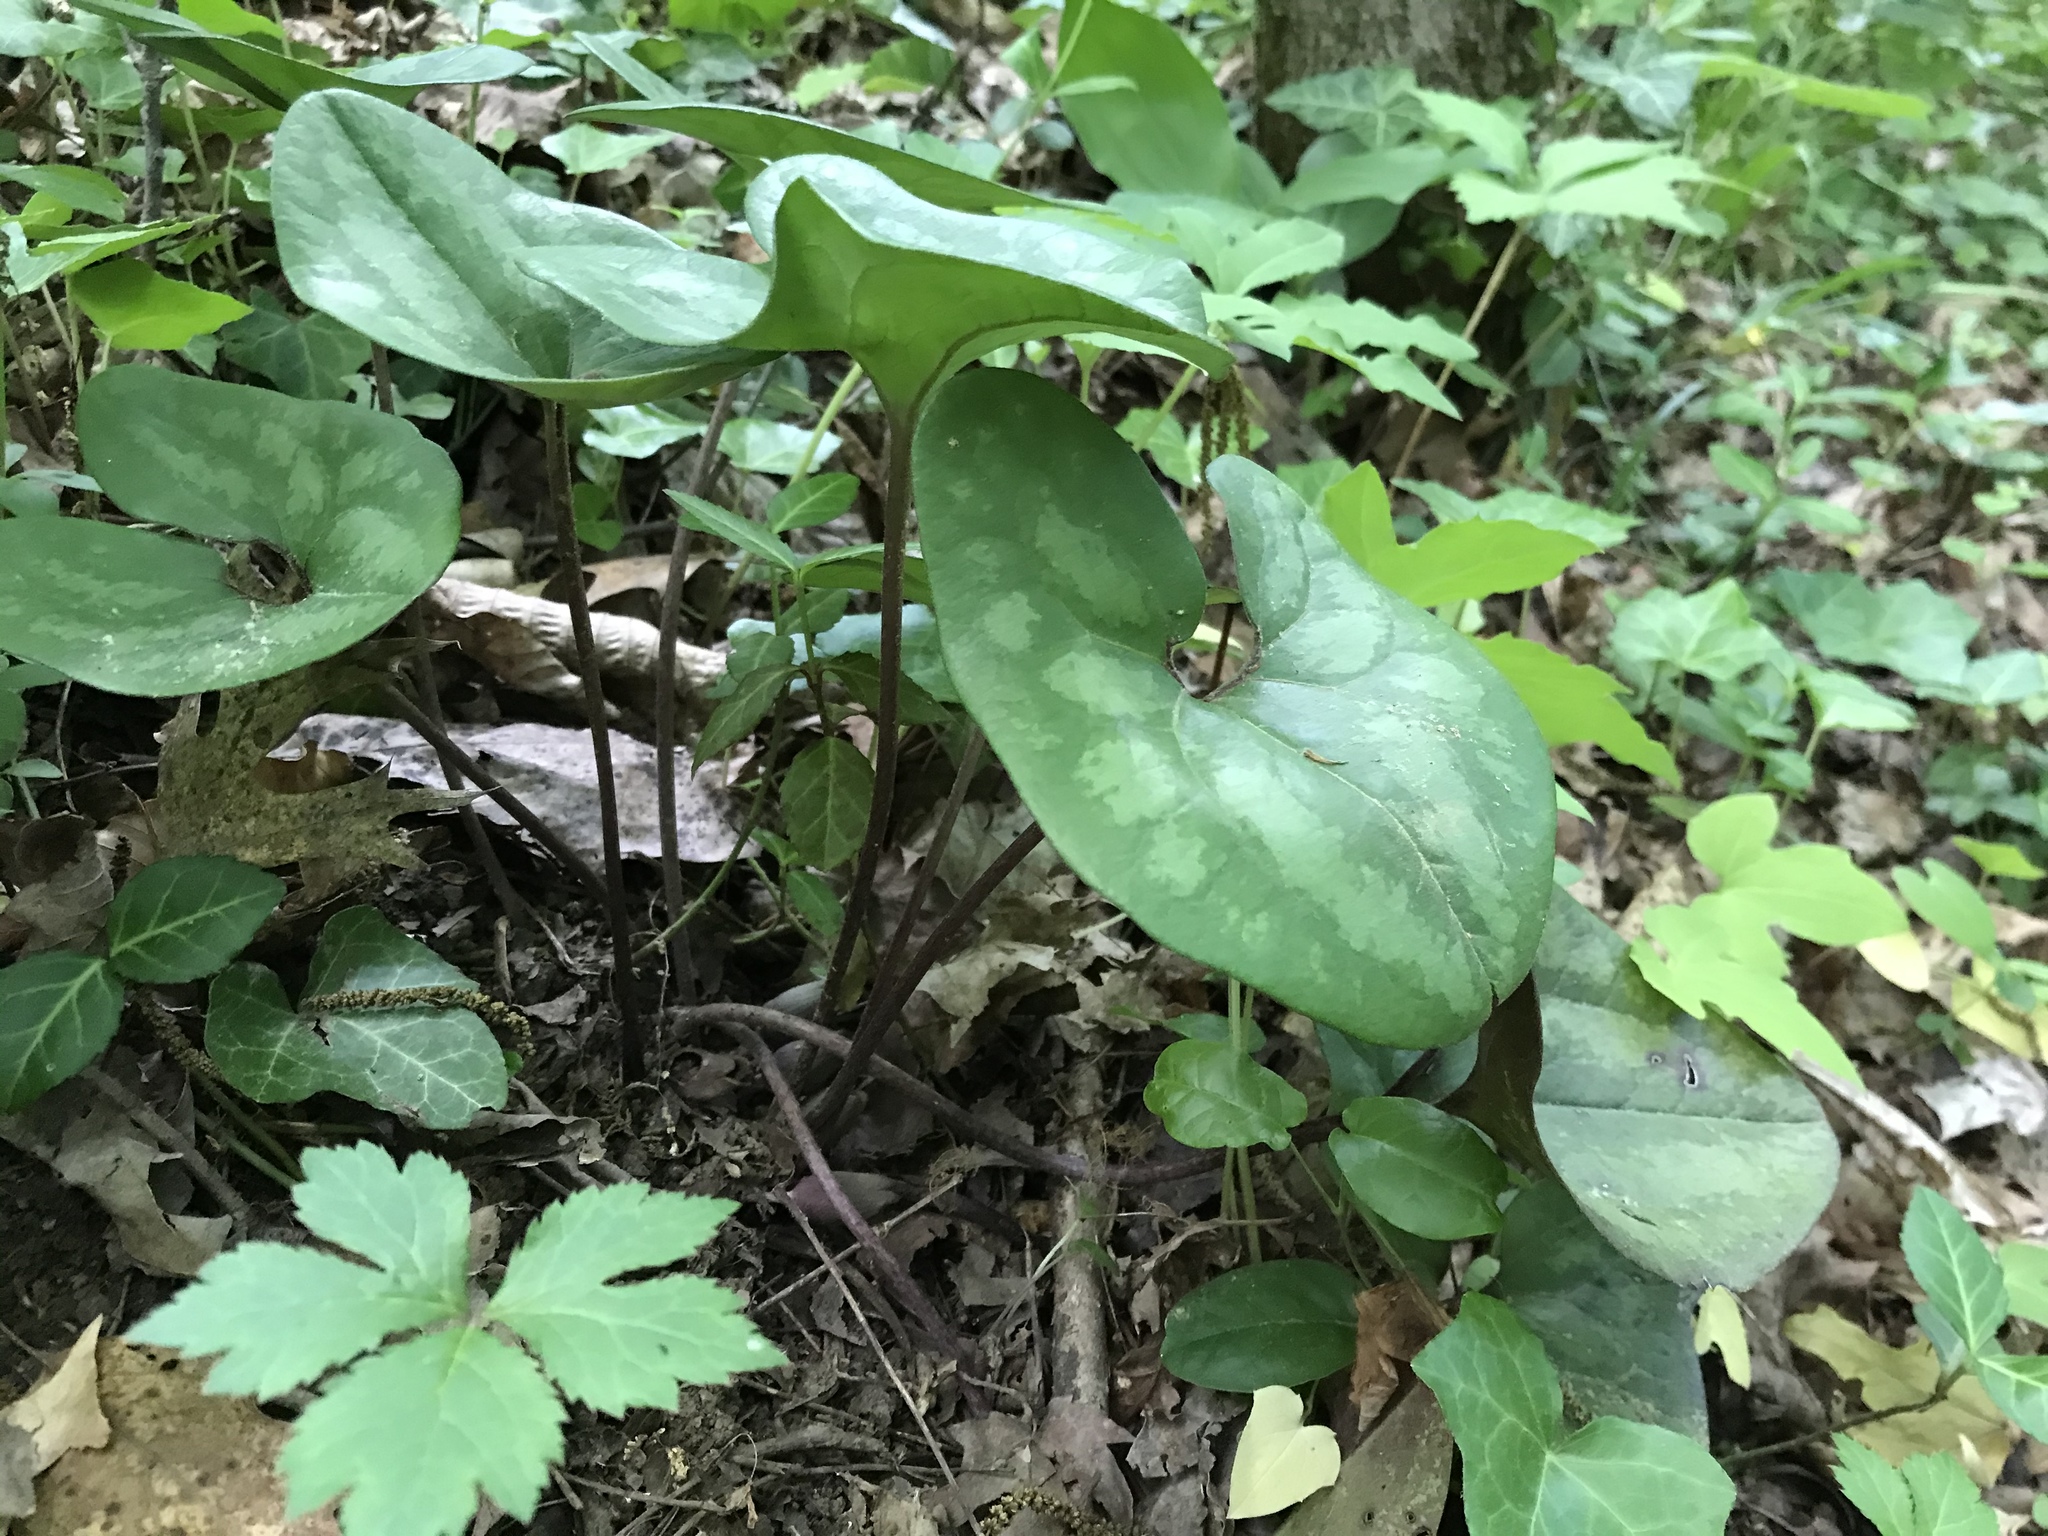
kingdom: Plantae
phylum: Tracheophyta
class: Magnoliopsida
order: Piperales
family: Aristolochiaceae
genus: Hexastylis
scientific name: Hexastylis arifolia
